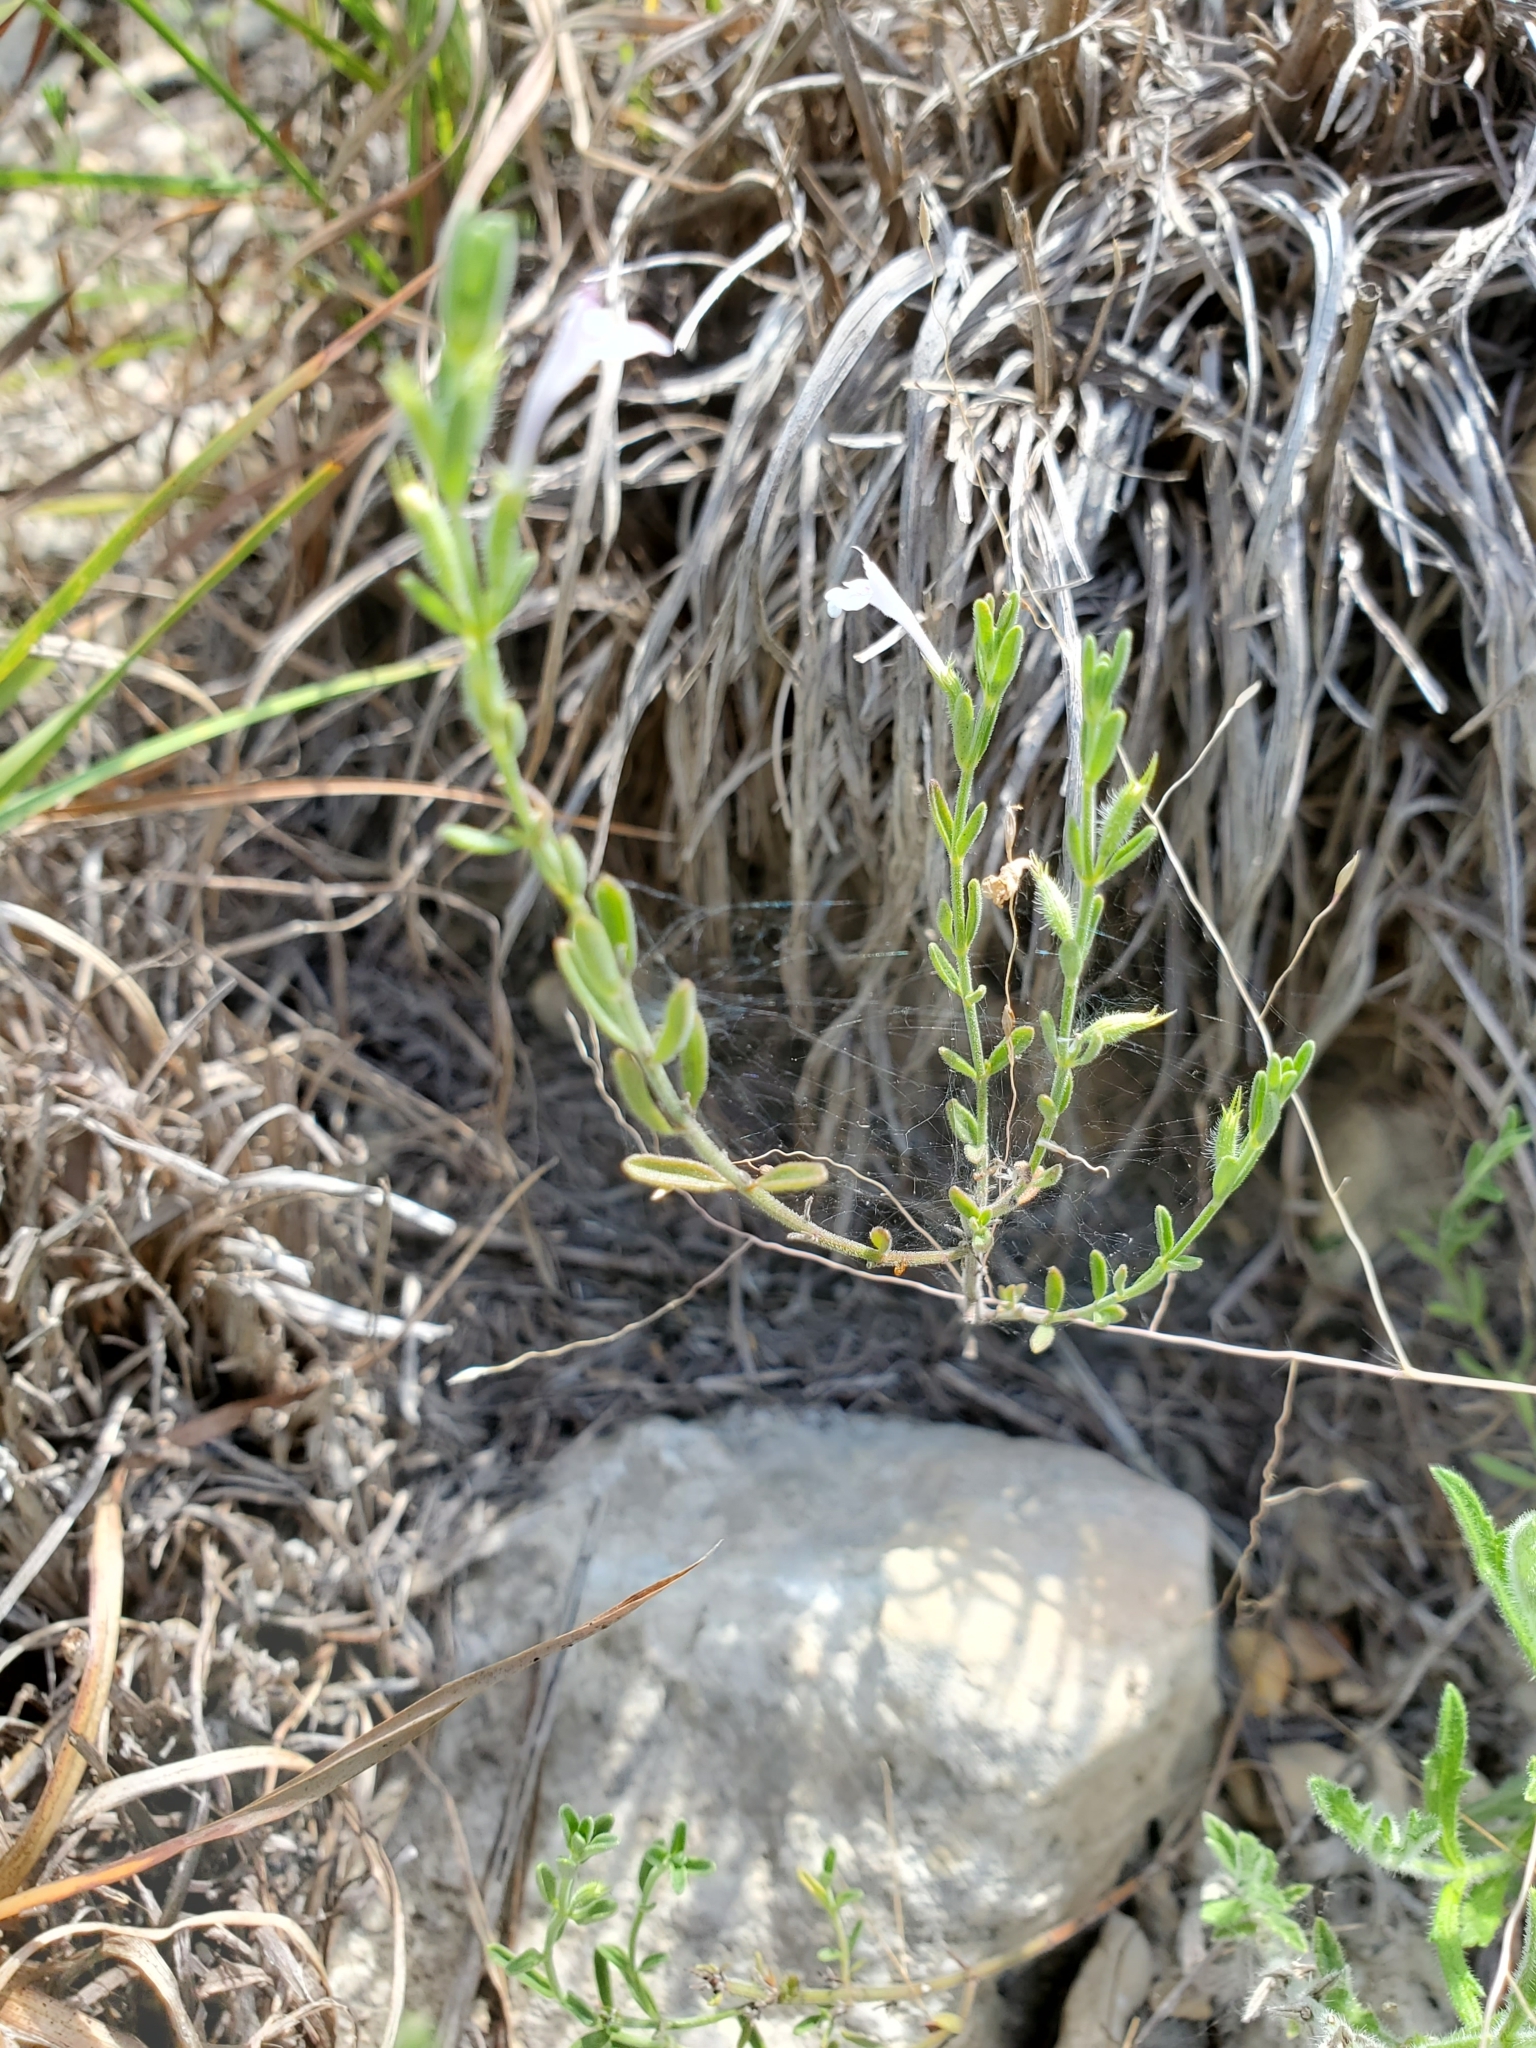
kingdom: Plantae
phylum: Tracheophyta
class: Magnoliopsida
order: Lamiales
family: Lamiaceae
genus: Hedeoma
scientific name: Hedeoma reverchonii
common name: Reverchon's false penny-royal
